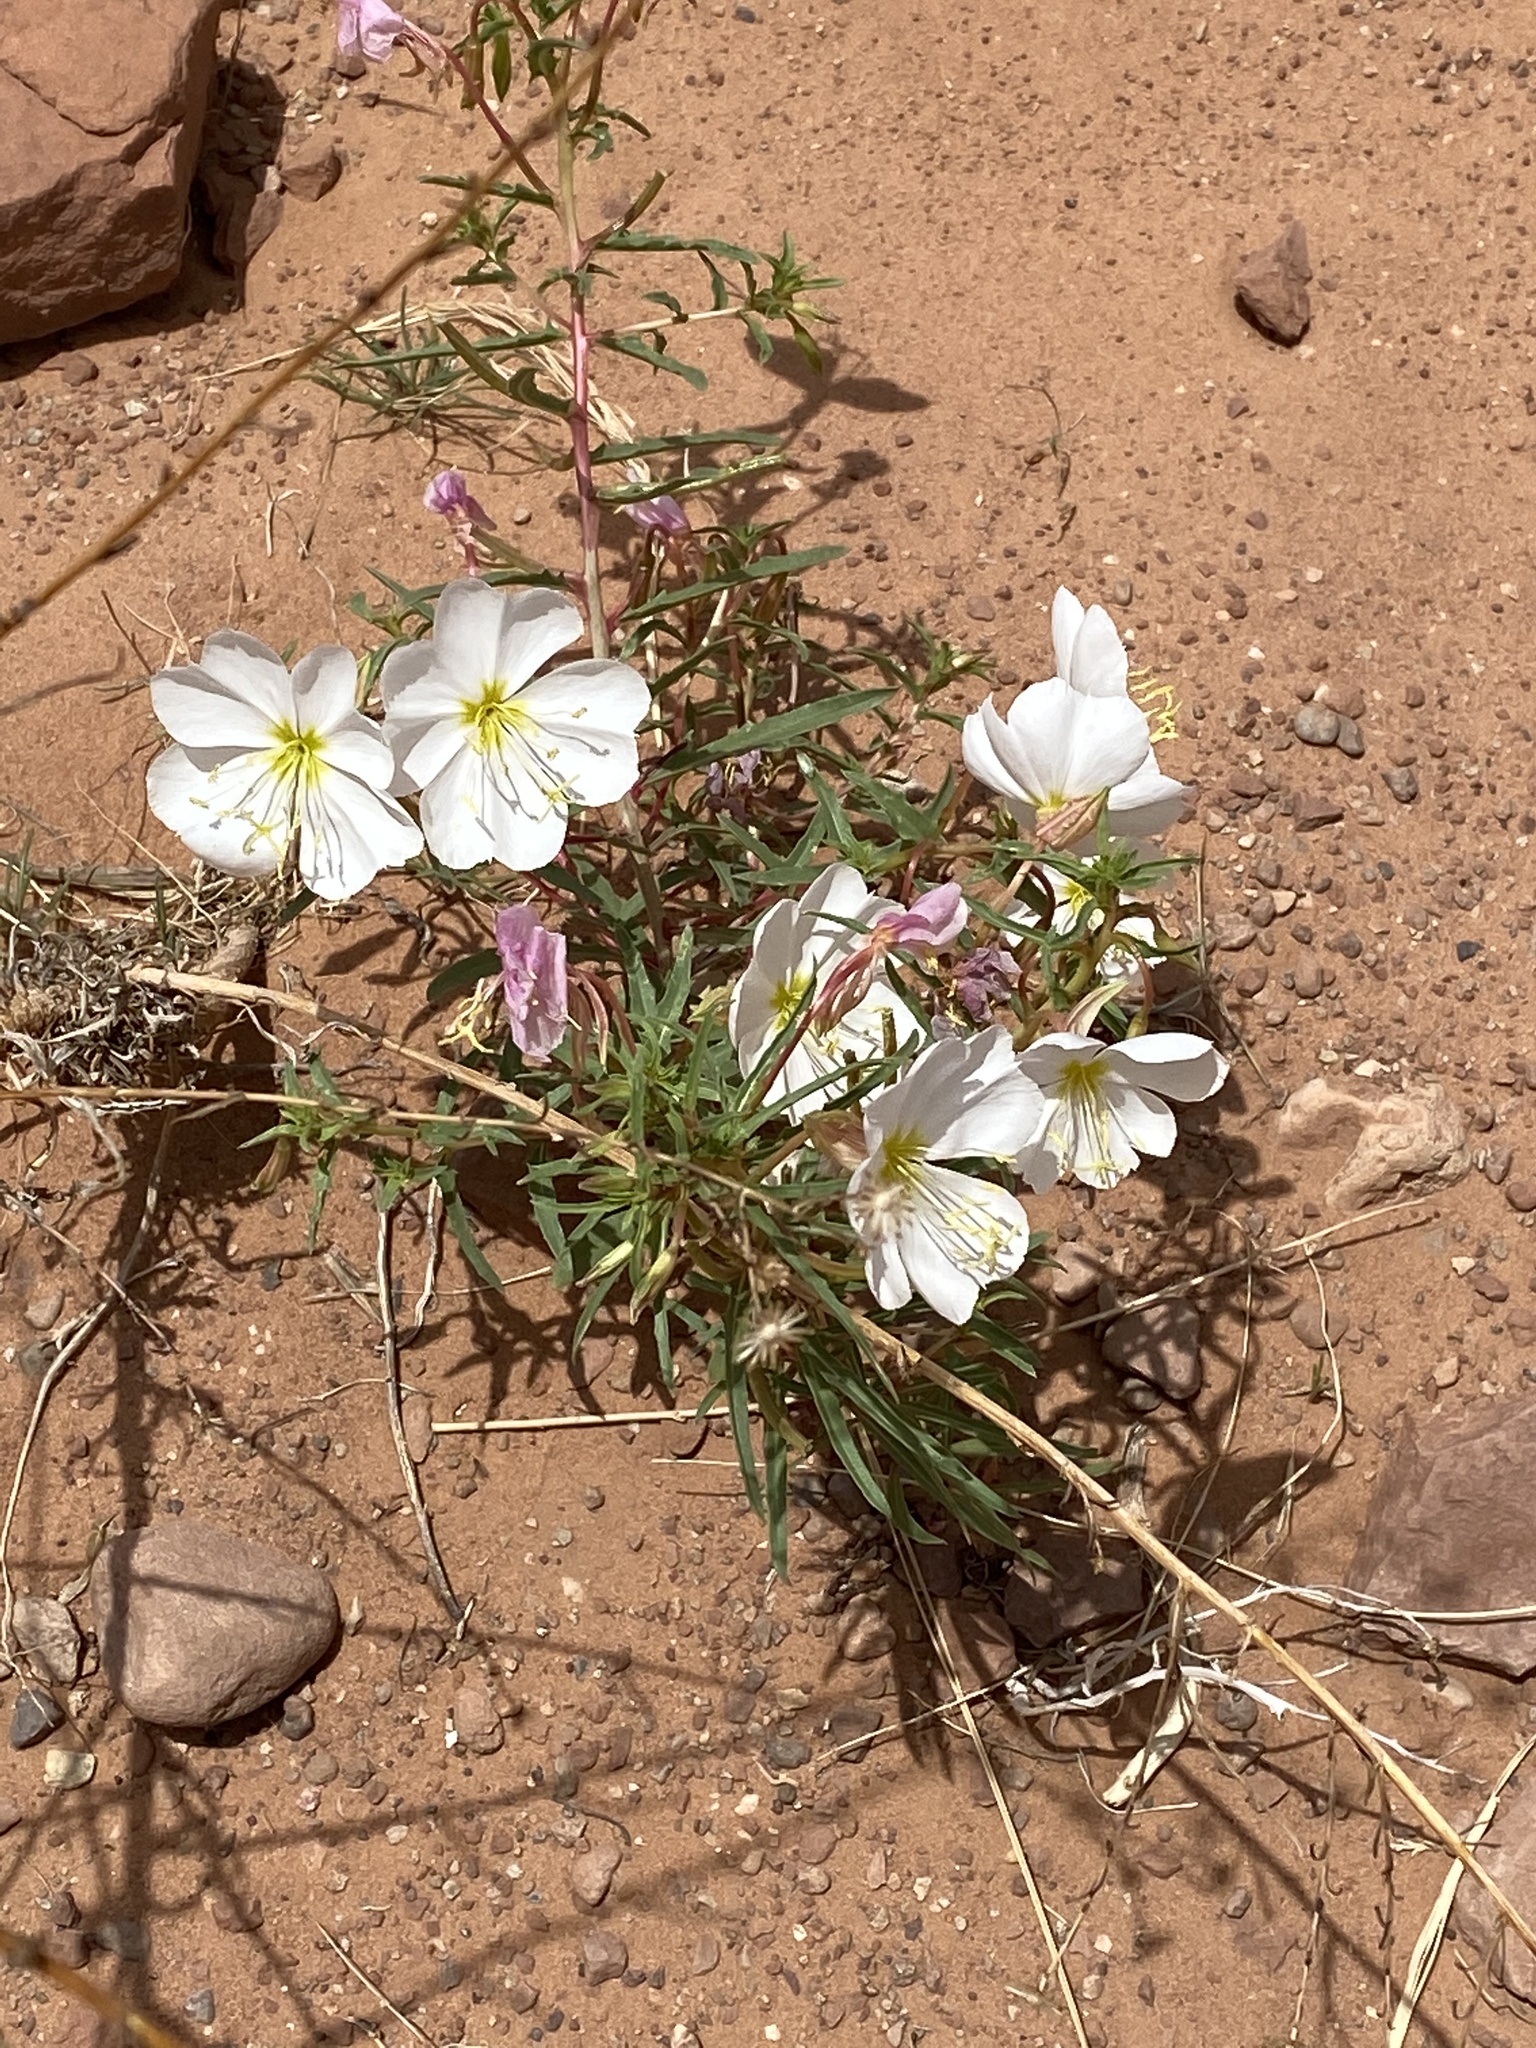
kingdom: Plantae
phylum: Tracheophyta
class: Magnoliopsida
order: Myrtales
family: Onagraceae
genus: Oenothera
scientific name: Oenothera pallida
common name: Pale evening-primrose
